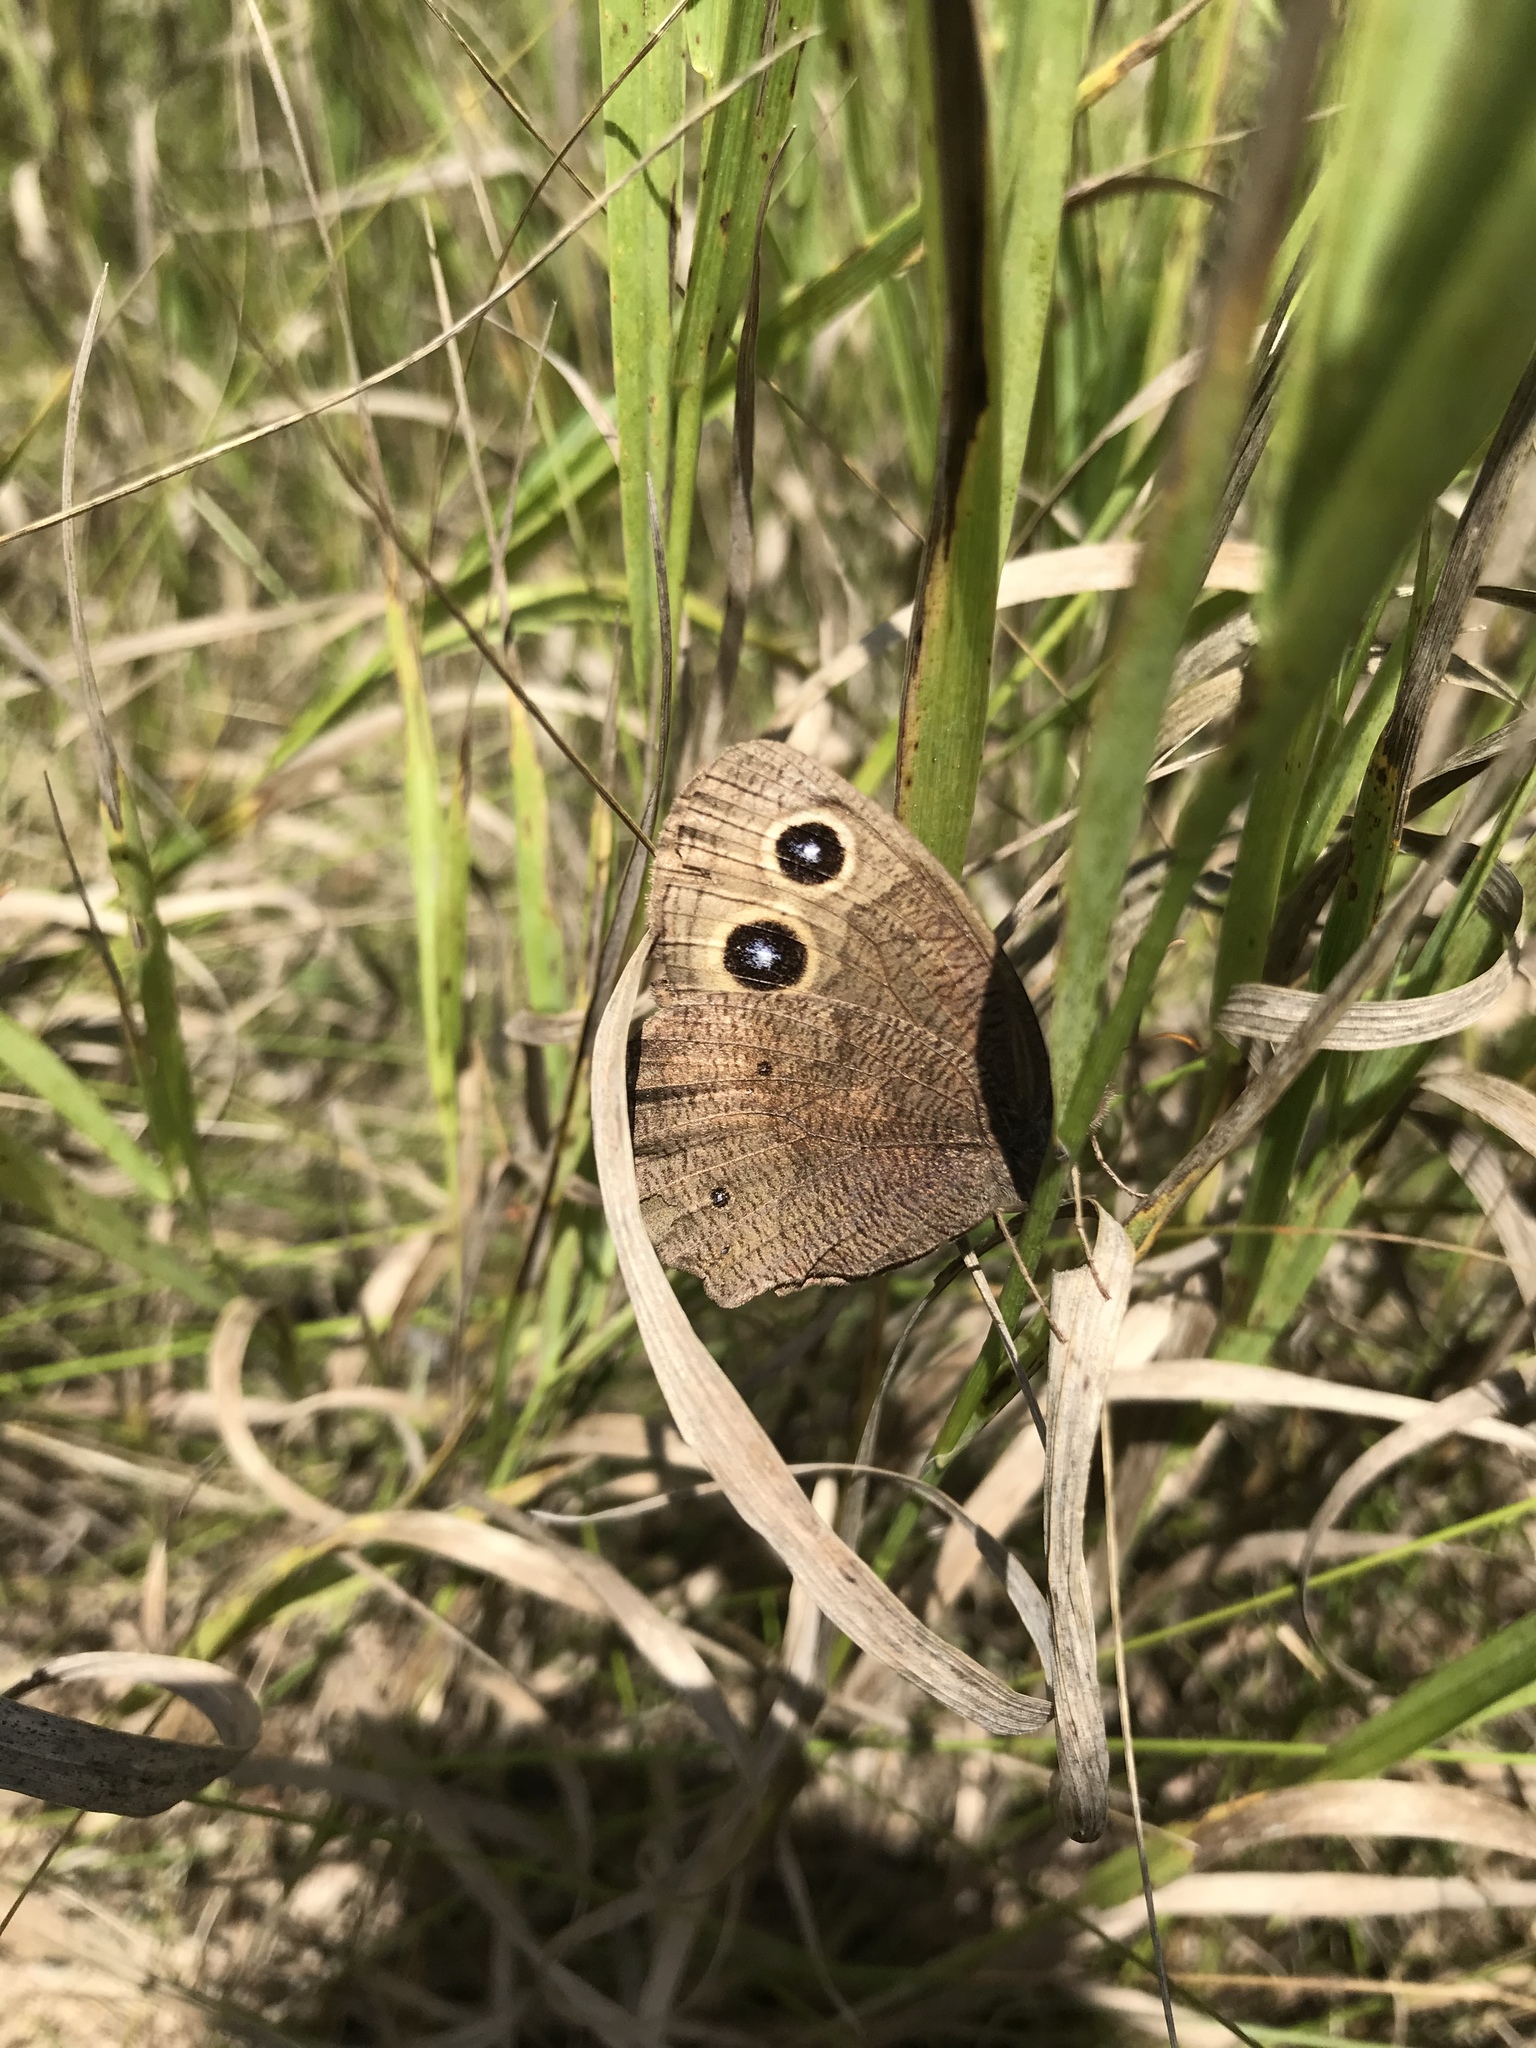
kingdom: Animalia
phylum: Arthropoda
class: Insecta
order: Lepidoptera
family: Nymphalidae
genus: Cercyonis
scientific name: Cercyonis pegala
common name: Common wood-nymph
